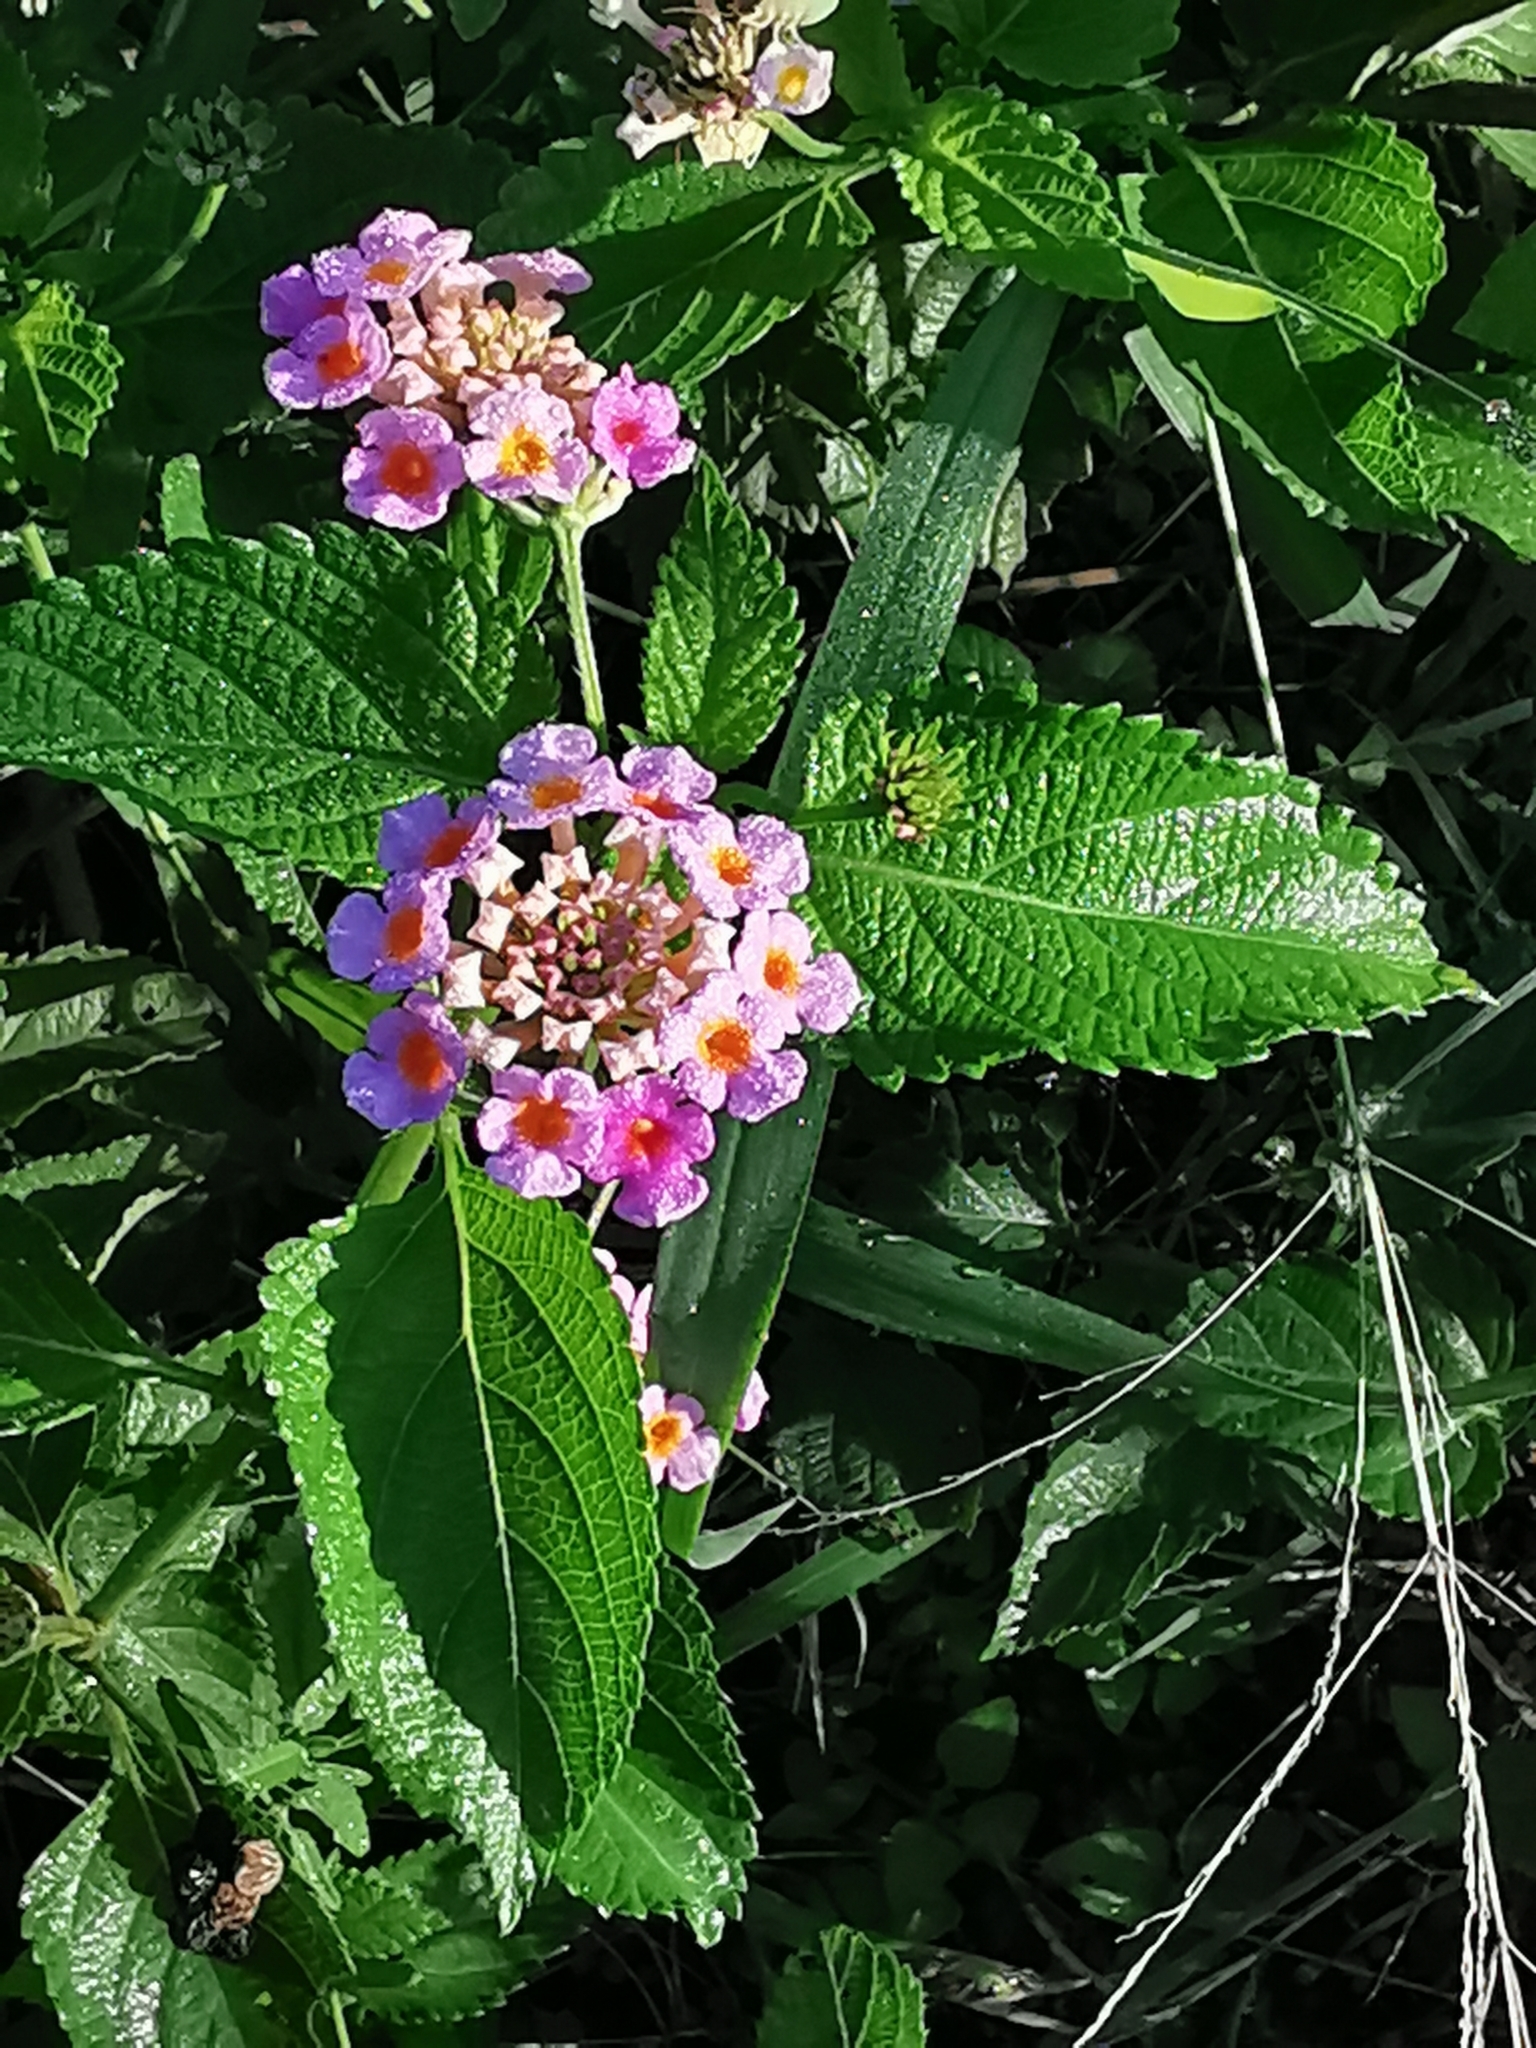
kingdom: Plantae
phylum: Tracheophyta
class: Magnoliopsida
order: Lamiales
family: Verbenaceae
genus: Lantana
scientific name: Lantana camara
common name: Lantana
